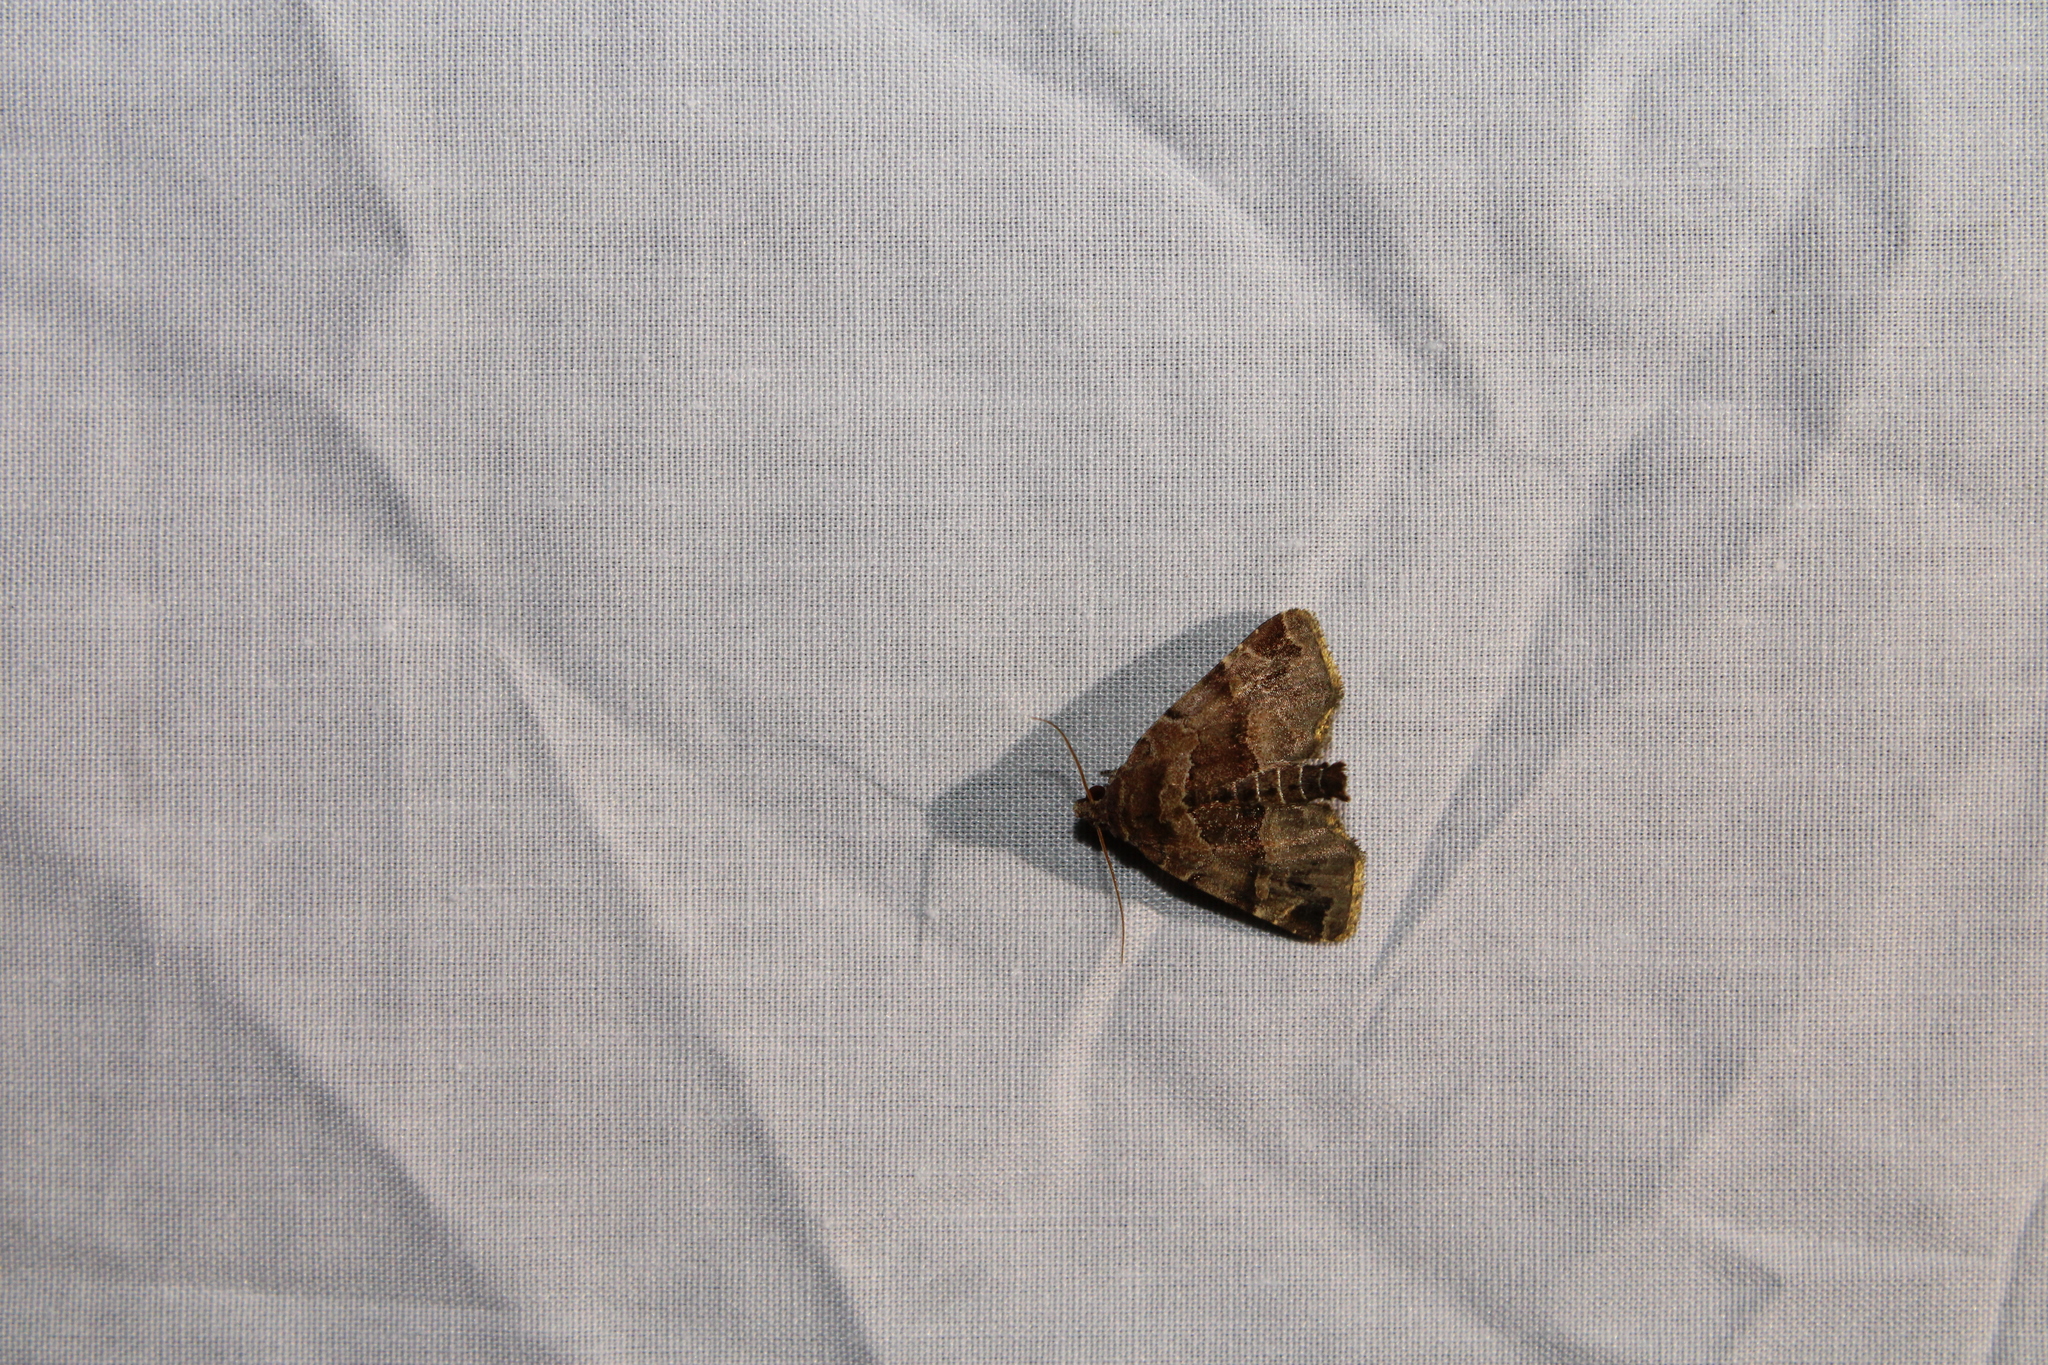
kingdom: Animalia
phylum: Arthropoda
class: Insecta
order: Lepidoptera
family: Noctuidae
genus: Niphonyx
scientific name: Niphonyx segregata
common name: Hops angleshade moth
